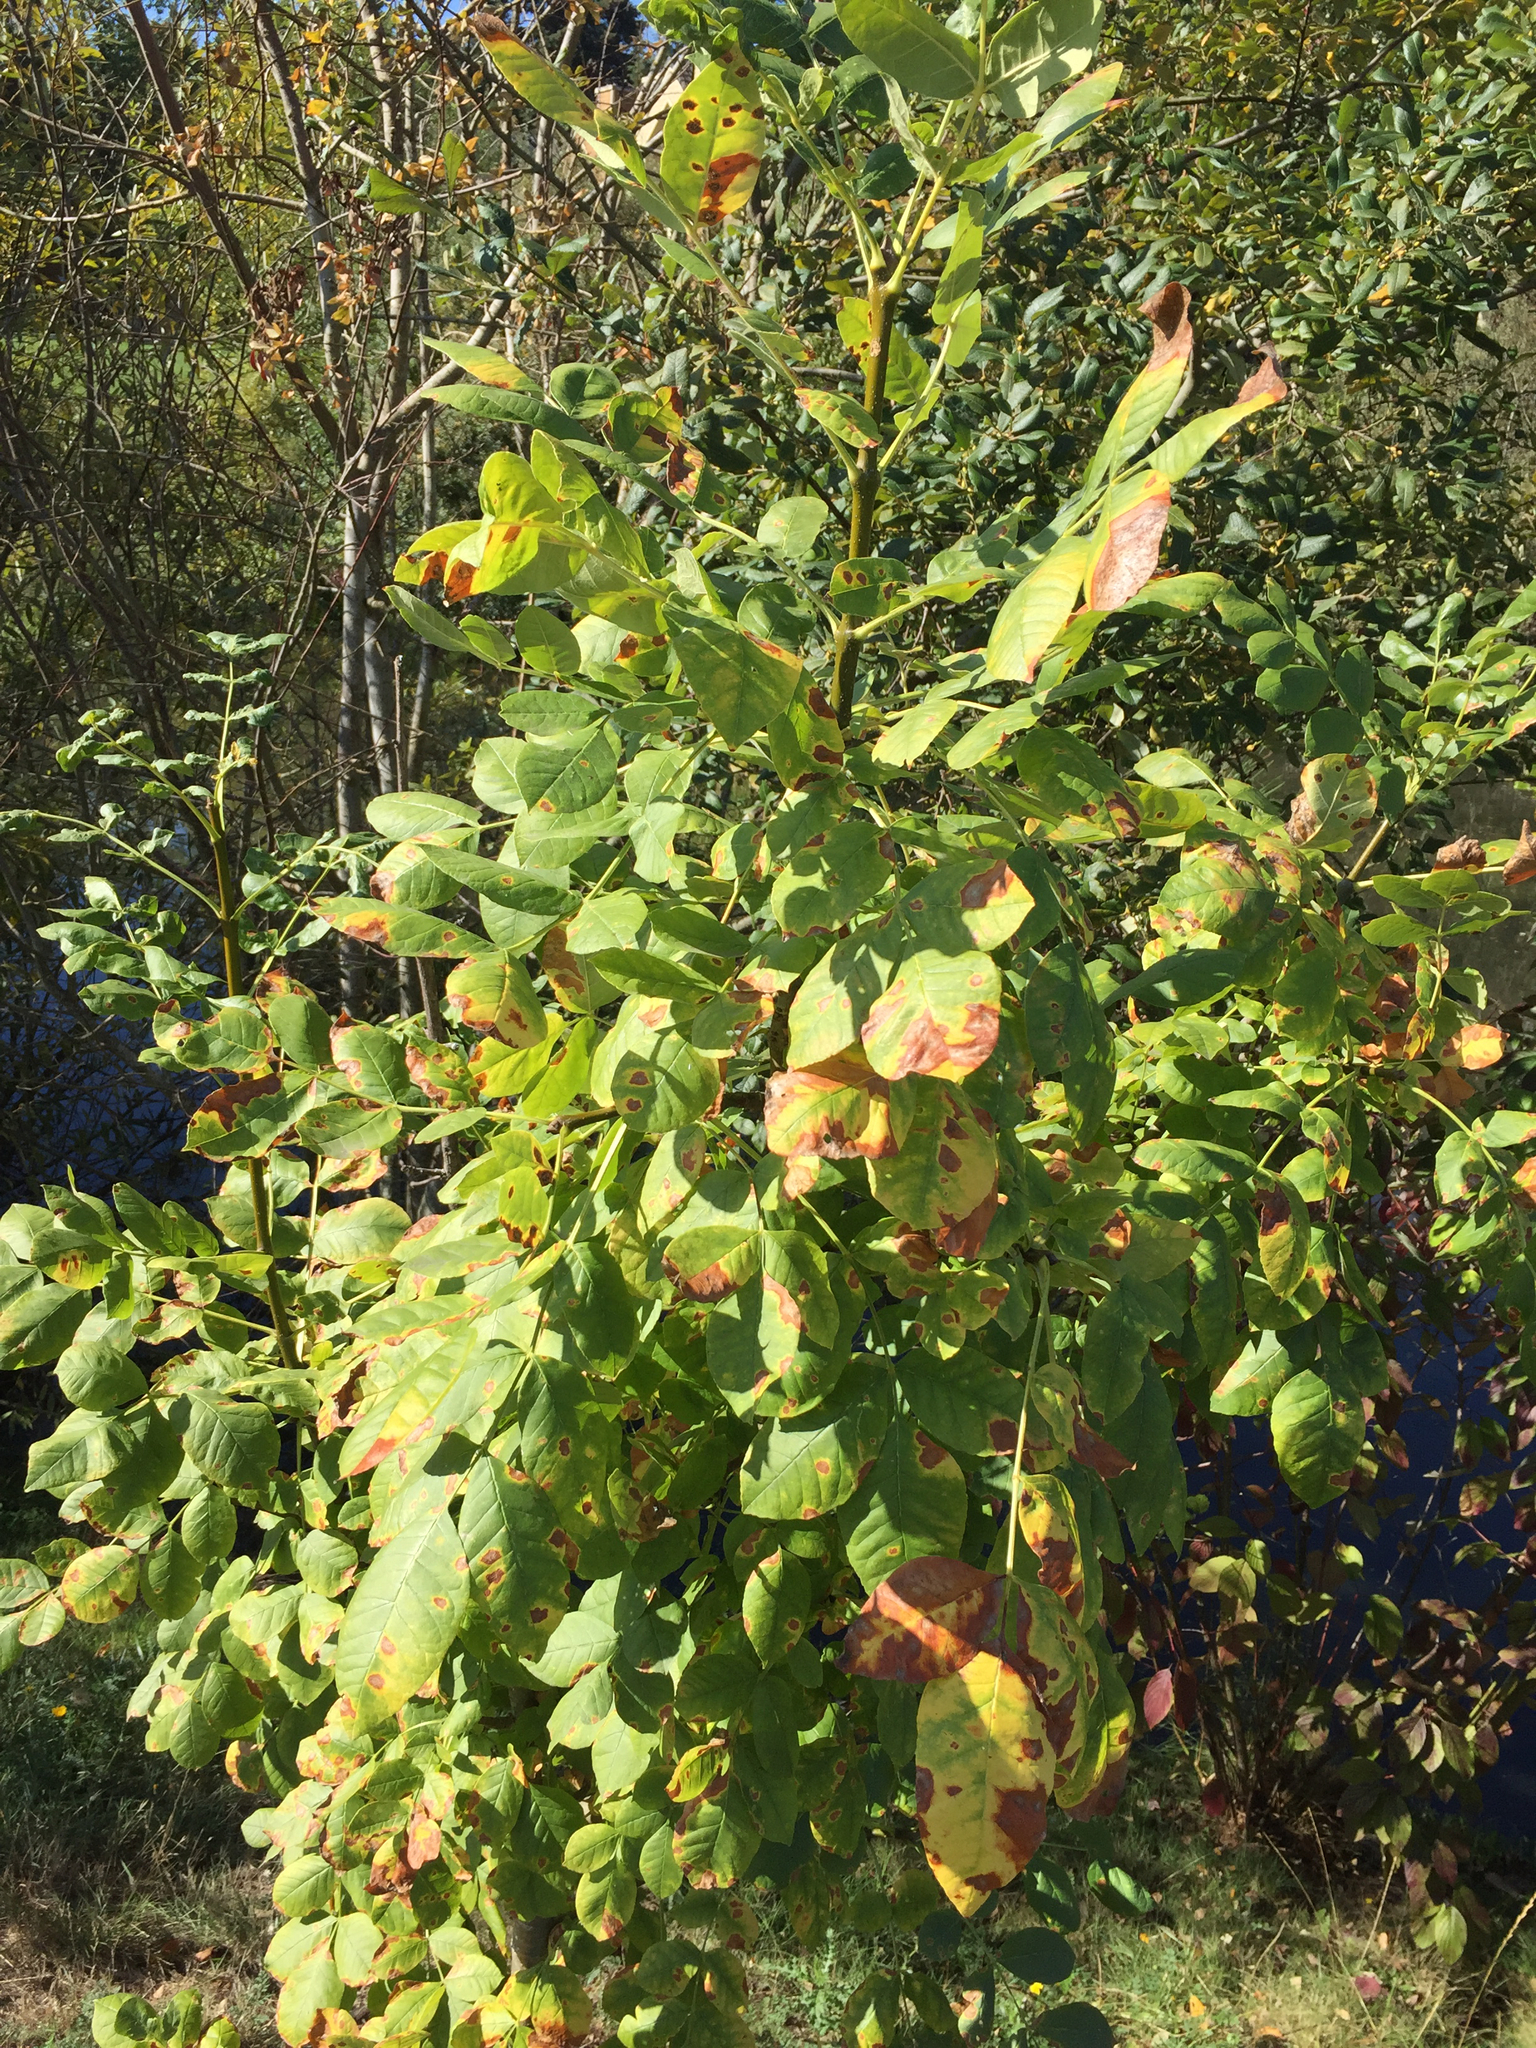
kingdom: Plantae
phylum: Tracheophyta
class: Magnoliopsida
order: Lamiales
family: Oleaceae
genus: Fraxinus
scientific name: Fraxinus latifolia
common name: Oregon ash
